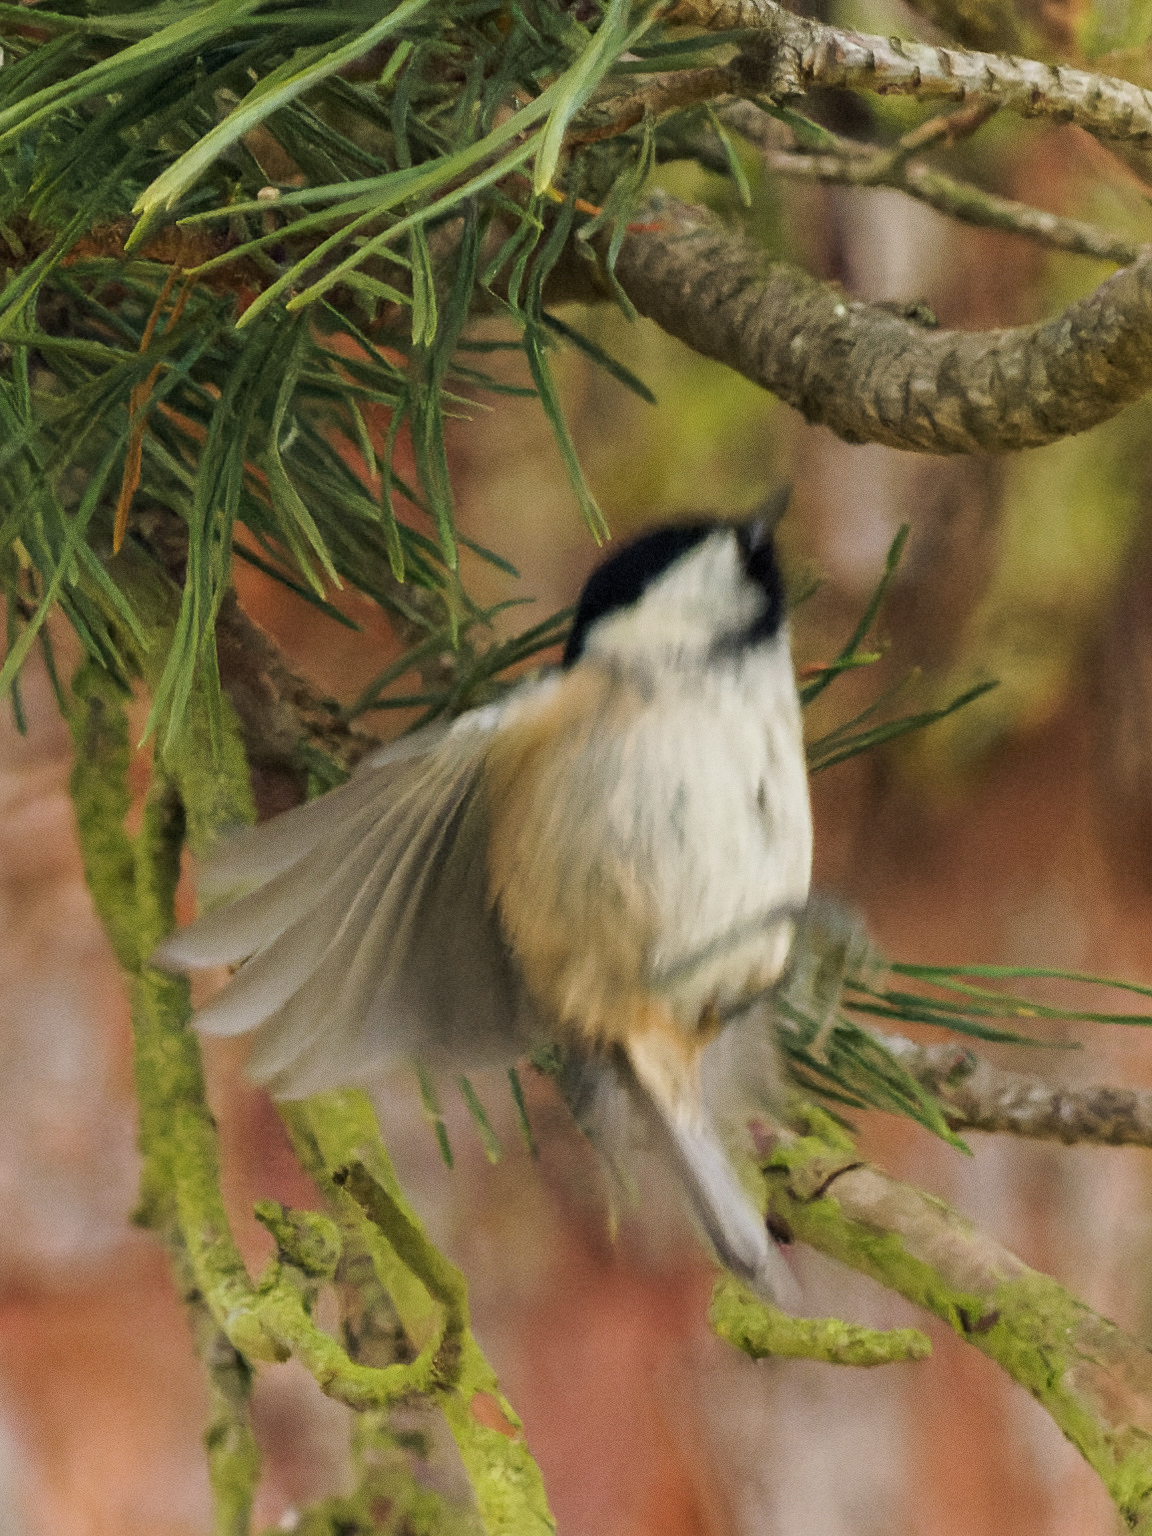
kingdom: Animalia
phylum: Chordata
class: Aves
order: Passeriformes
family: Paridae
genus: Poecile
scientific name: Poecile montanus
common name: Willow tit
